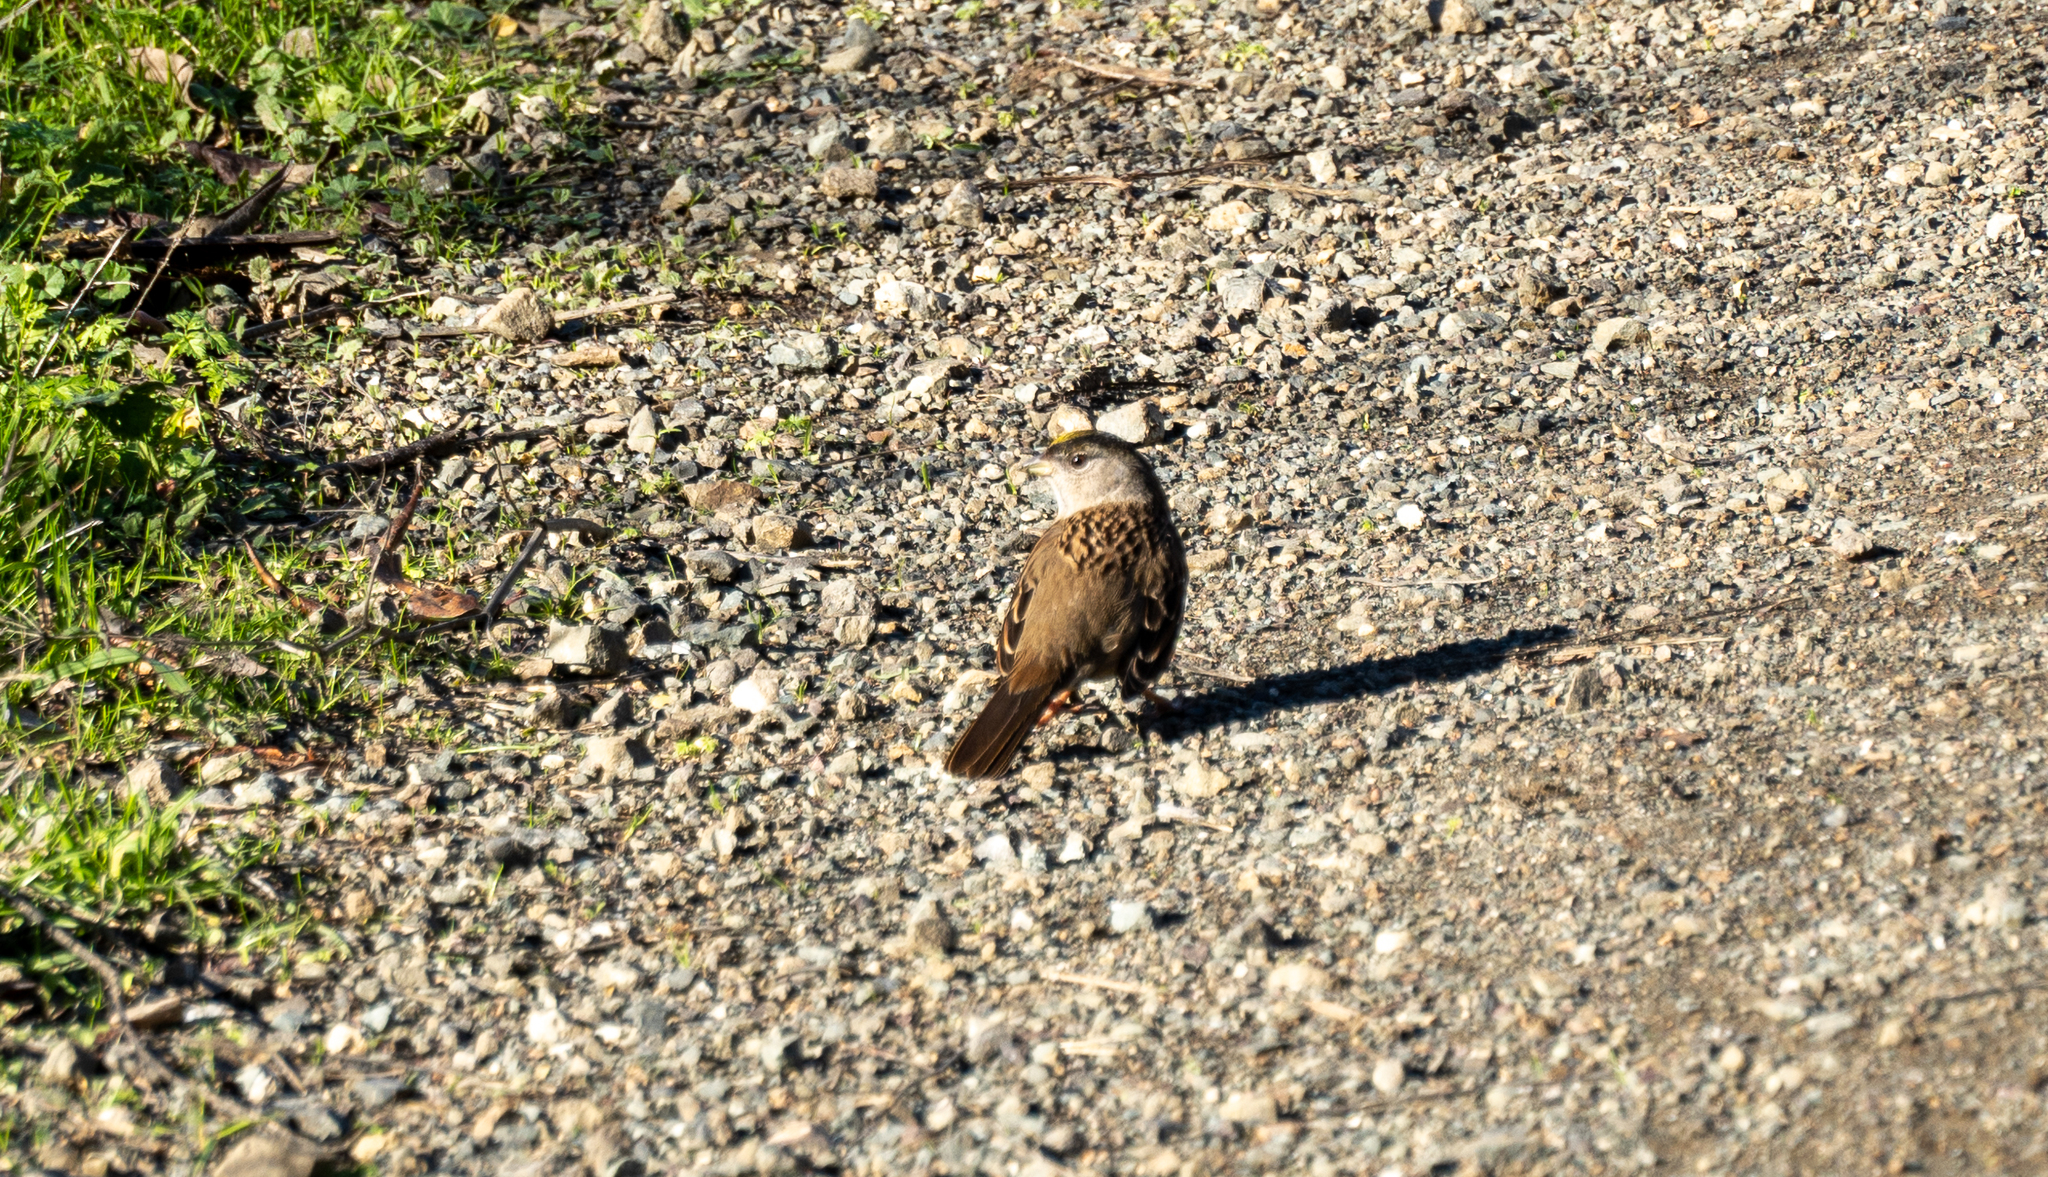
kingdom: Animalia
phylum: Chordata
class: Aves
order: Passeriformes
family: Passerellidae
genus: Zonotrichia
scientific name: Zonotrichia atricapilla
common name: Golden-crowned sparrow
